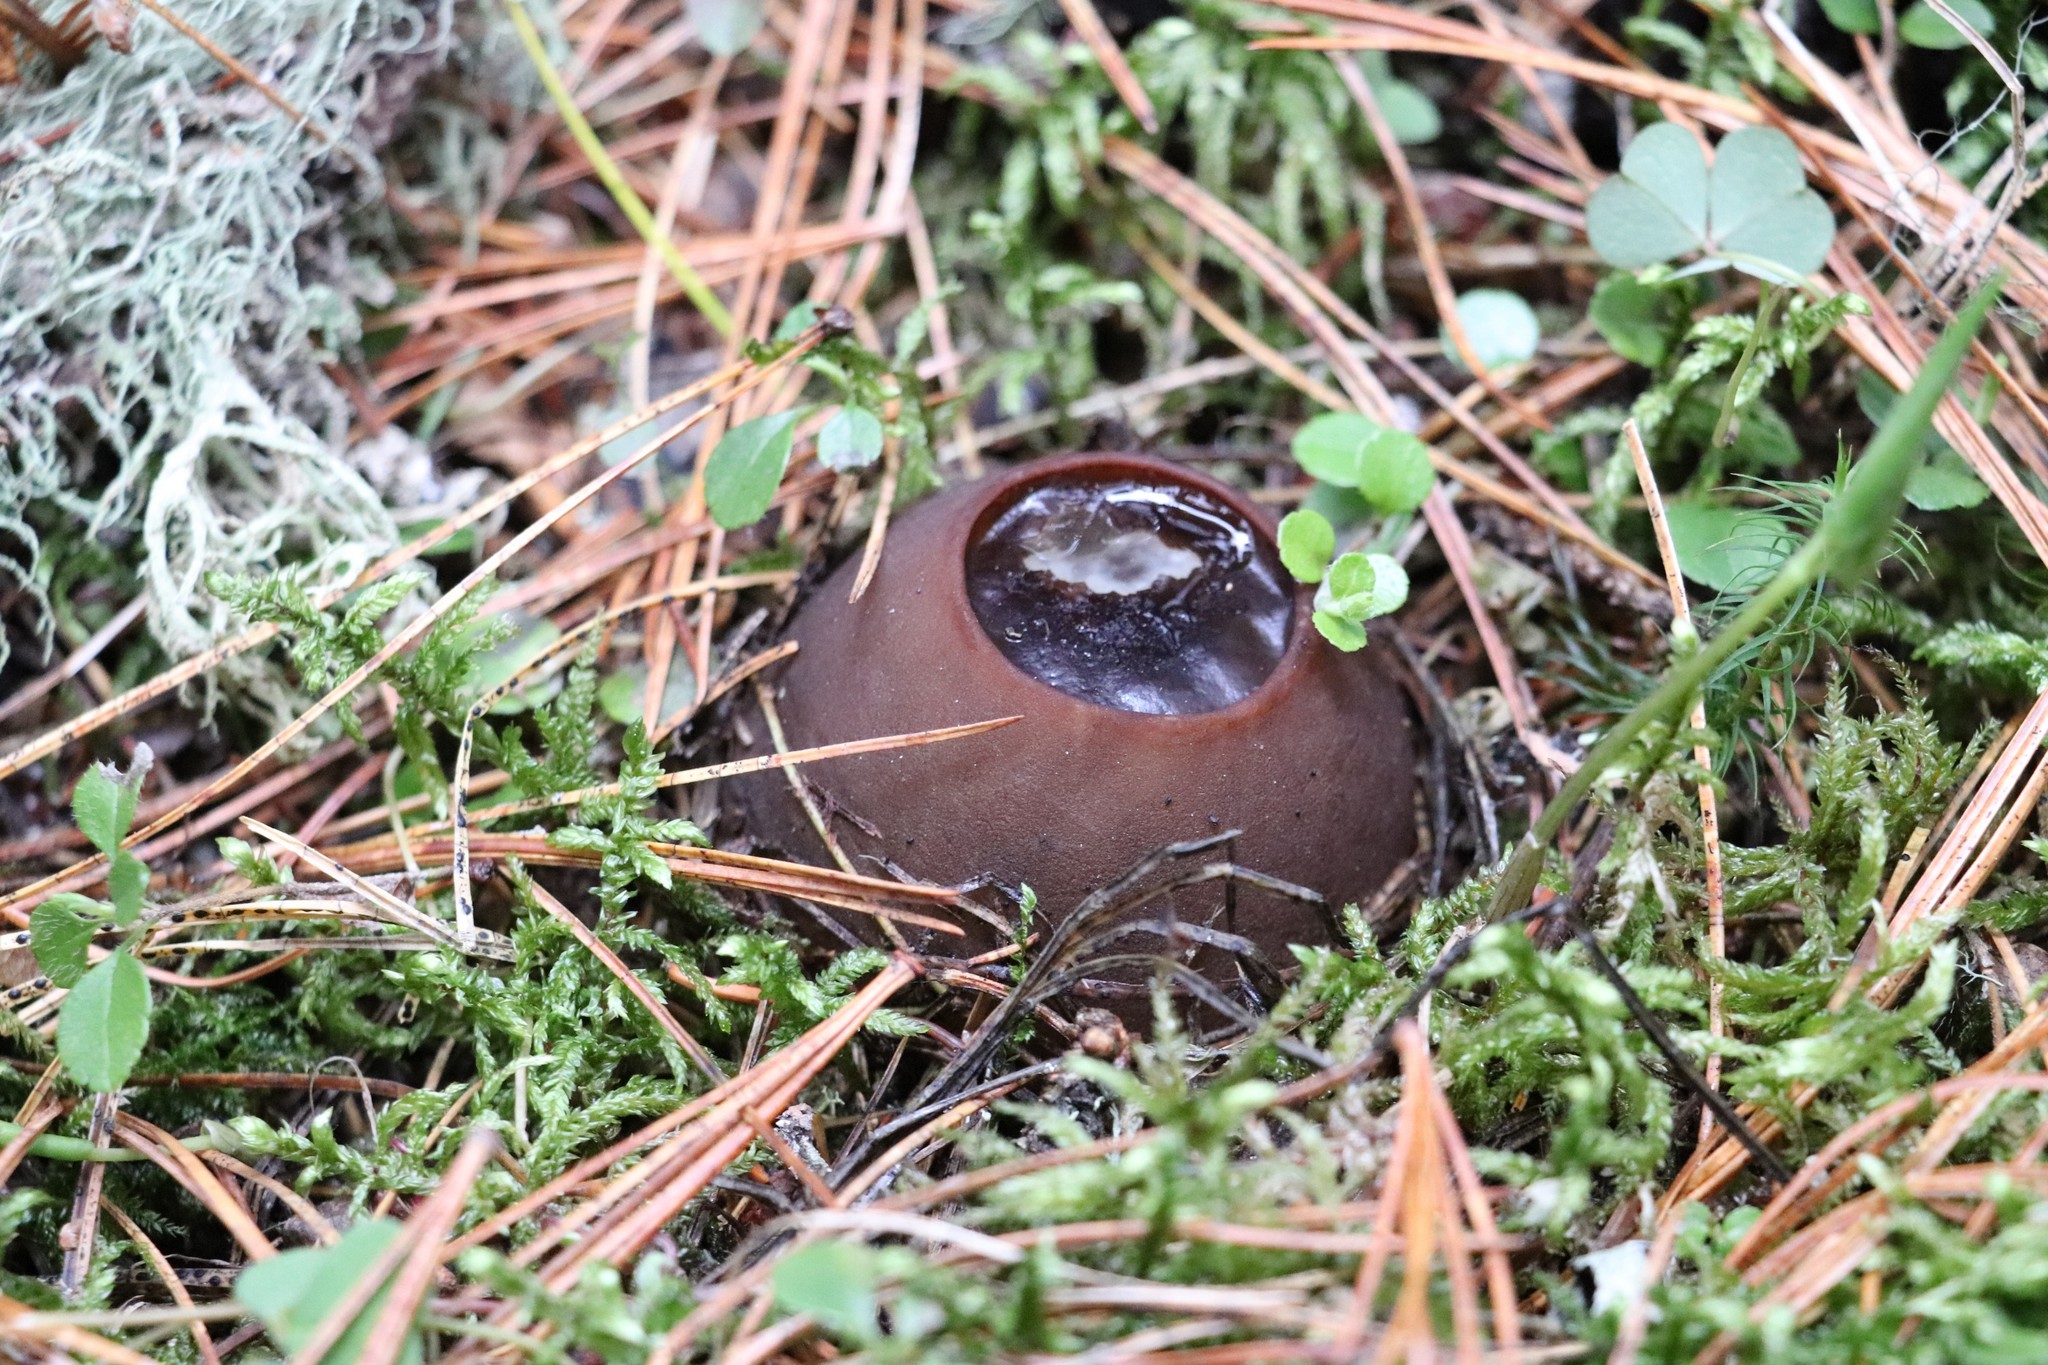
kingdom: Fungi
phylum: Ascomycota
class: Pezizomycetes
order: Pezizales
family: Sarcosomataceae
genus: Sarcosoma
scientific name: Sarcosoma globosum
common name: Charred-pancake cup
